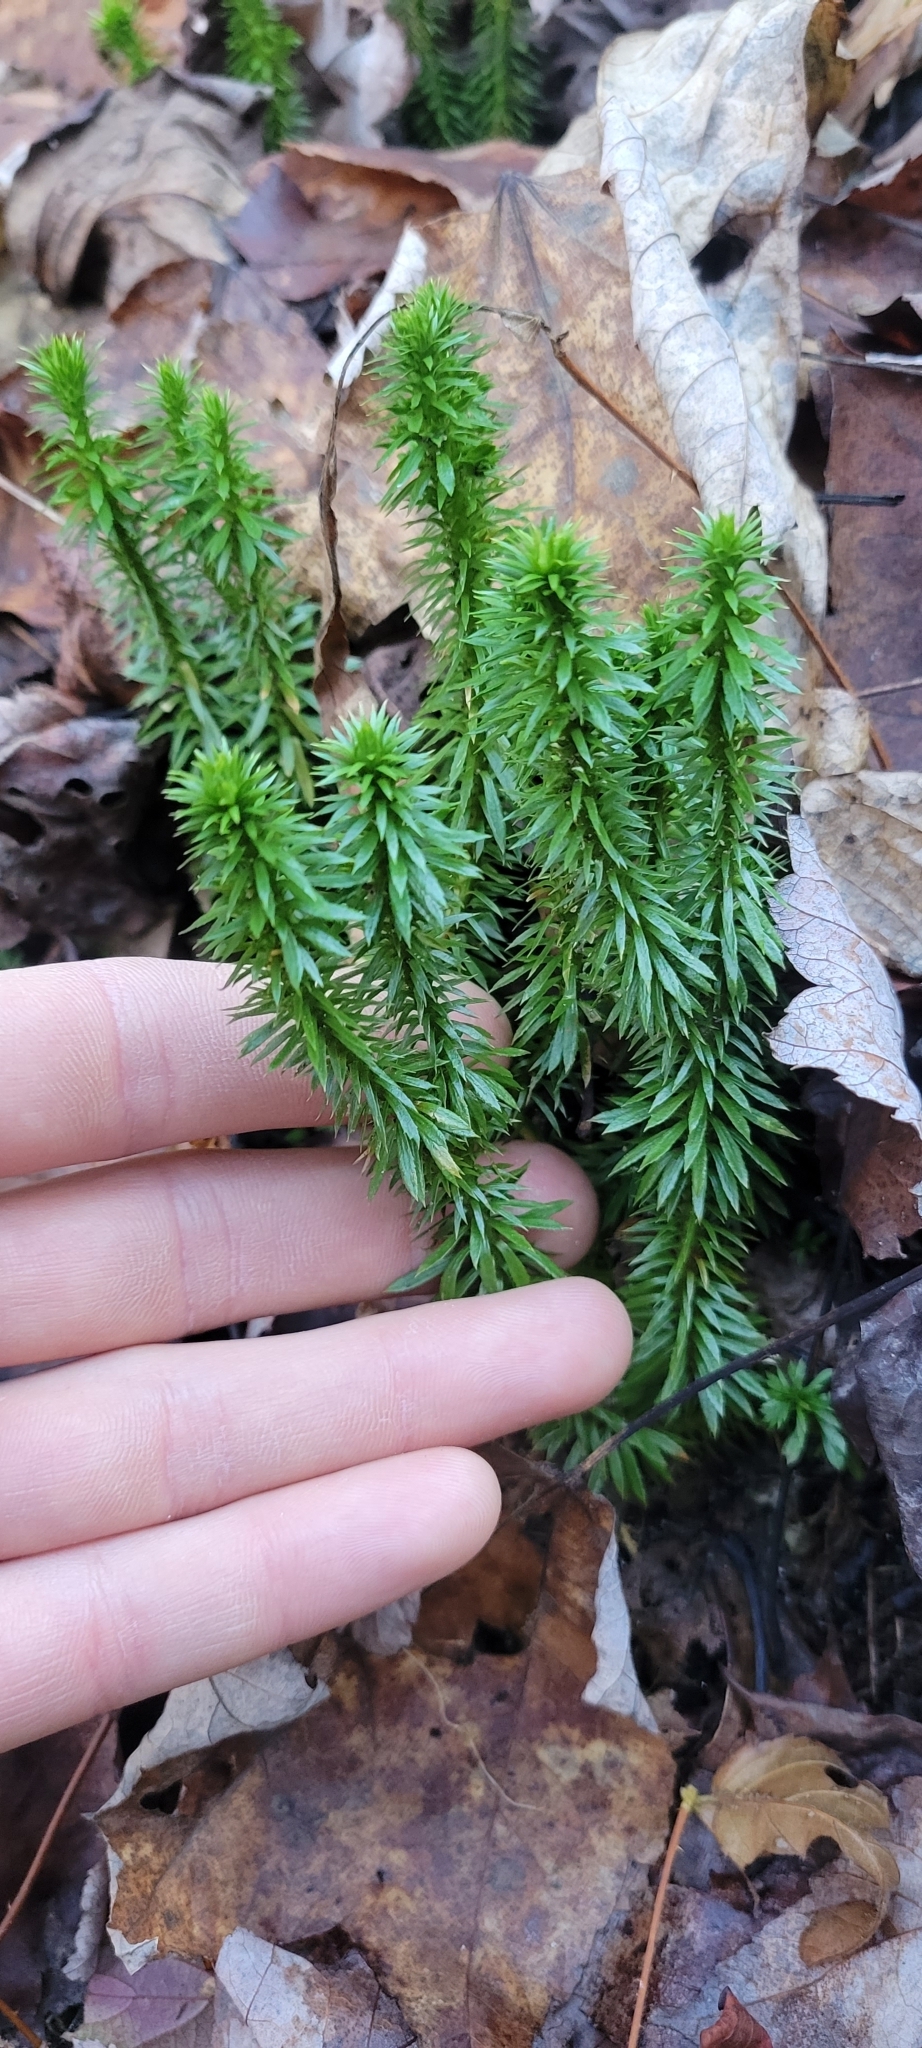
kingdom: Plantae
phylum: Tracheophyta
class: Lycopodiopsida
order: Lycopodiales
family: Lycopodiaceae
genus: Huperzia
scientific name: Huperzia lucidula
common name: Shining clubmoss
